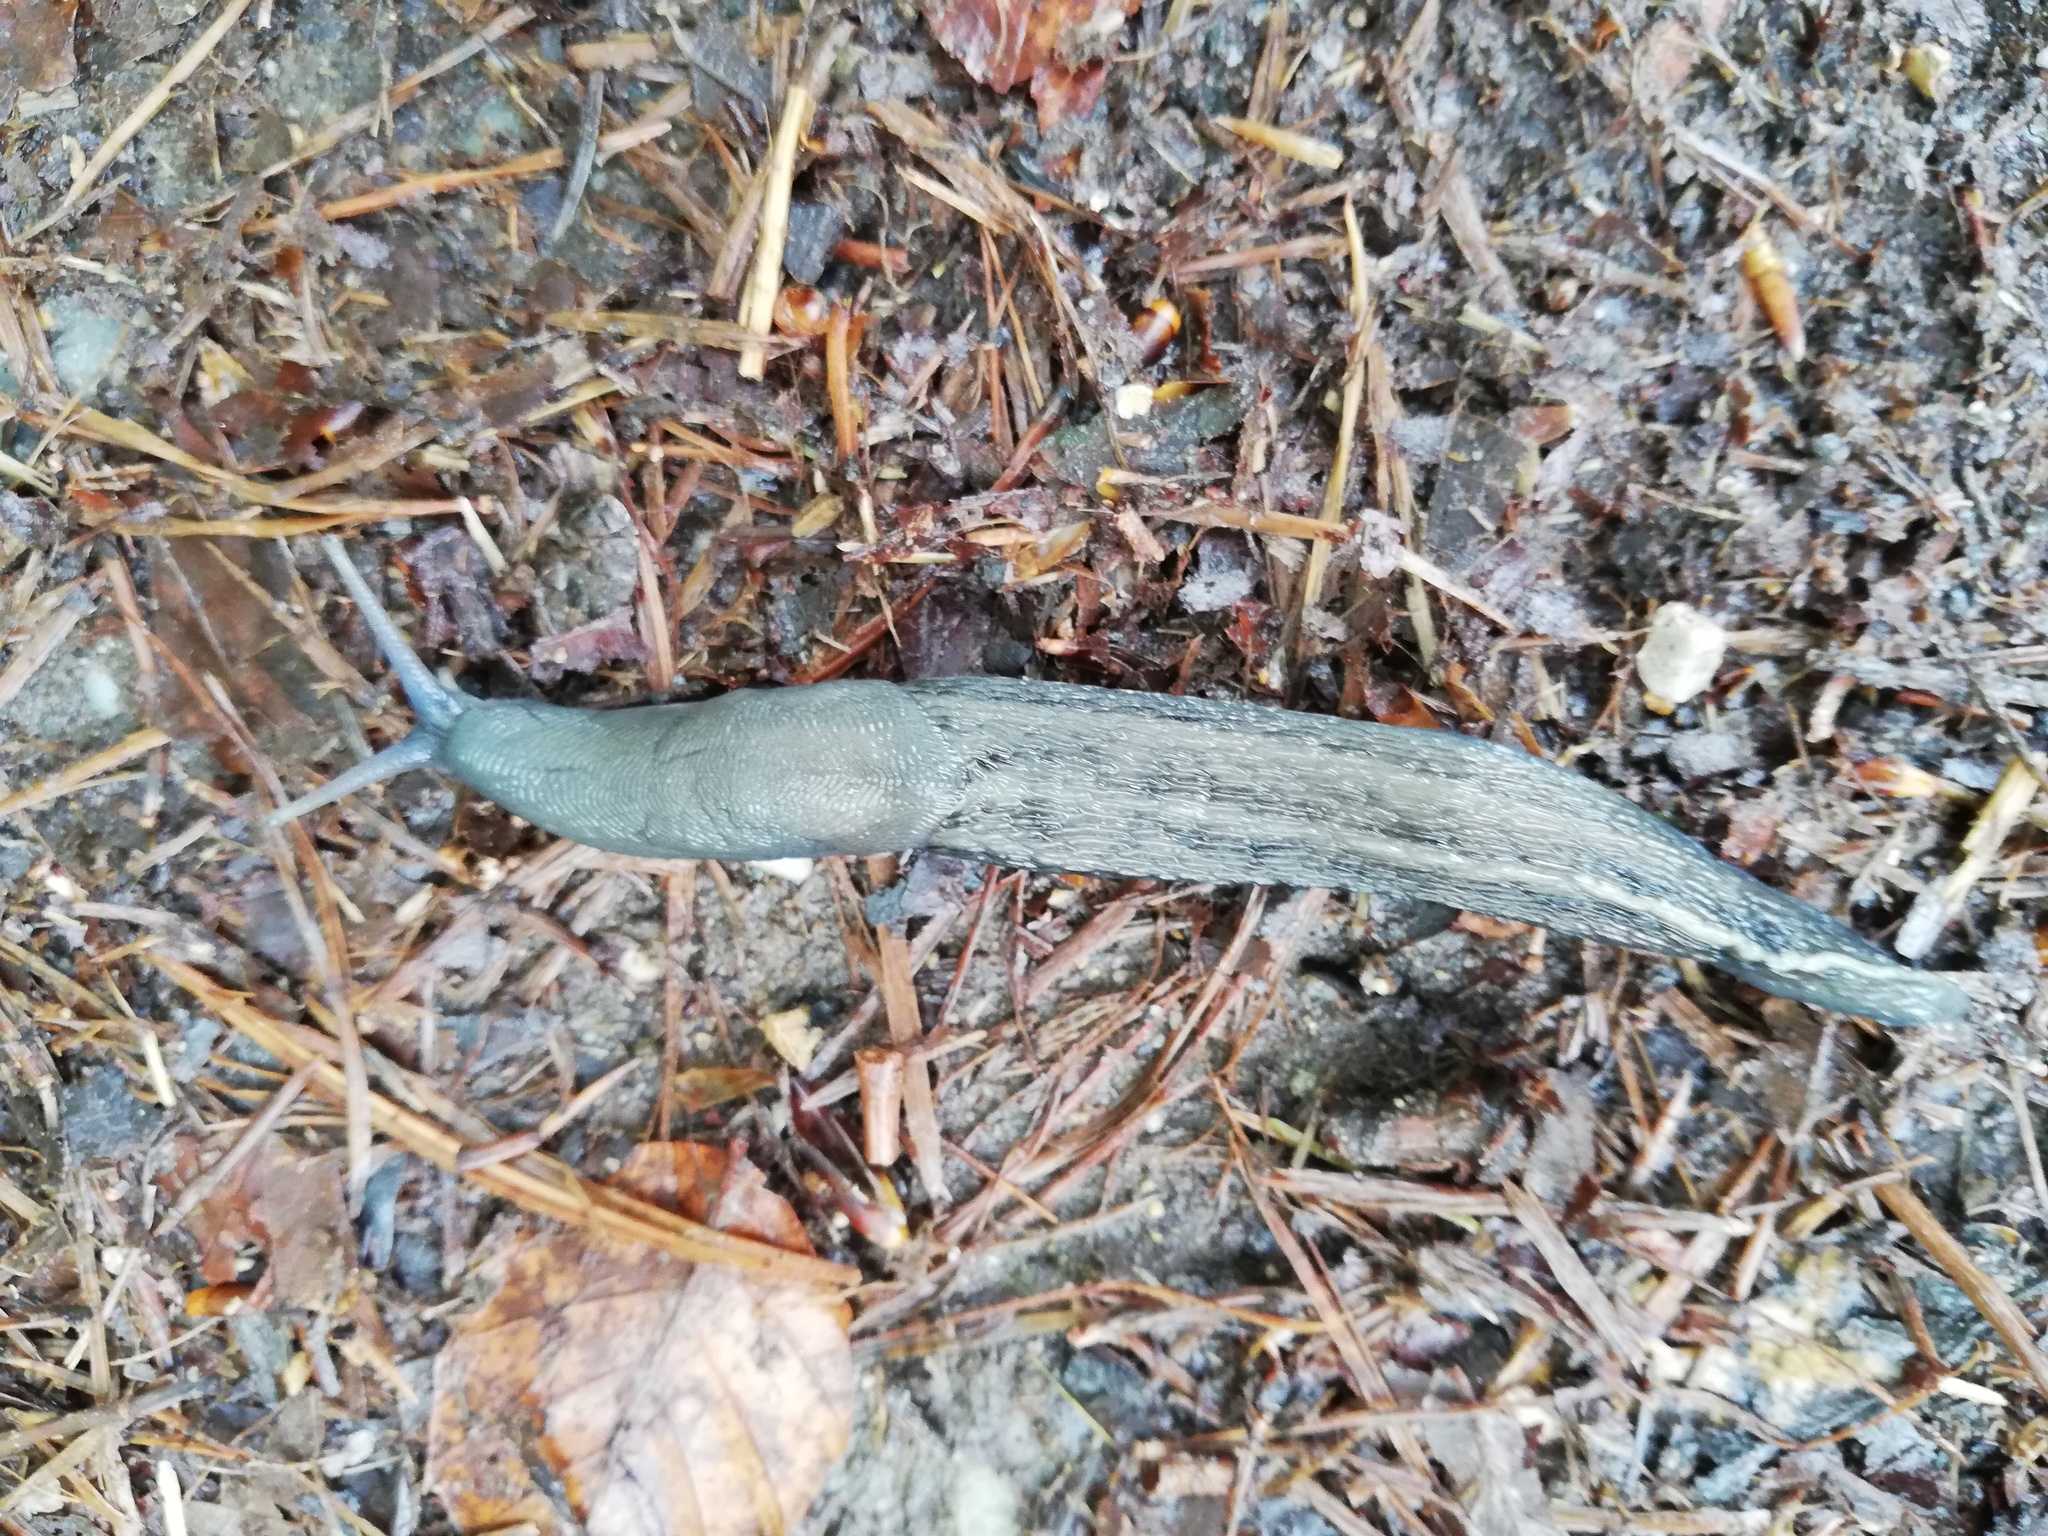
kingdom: Animalia
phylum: Mollusca
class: Gastropoda
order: Stylommatophora
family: Limacidae
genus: Limax
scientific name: Limax cinereoniger
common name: Ash-black slug
